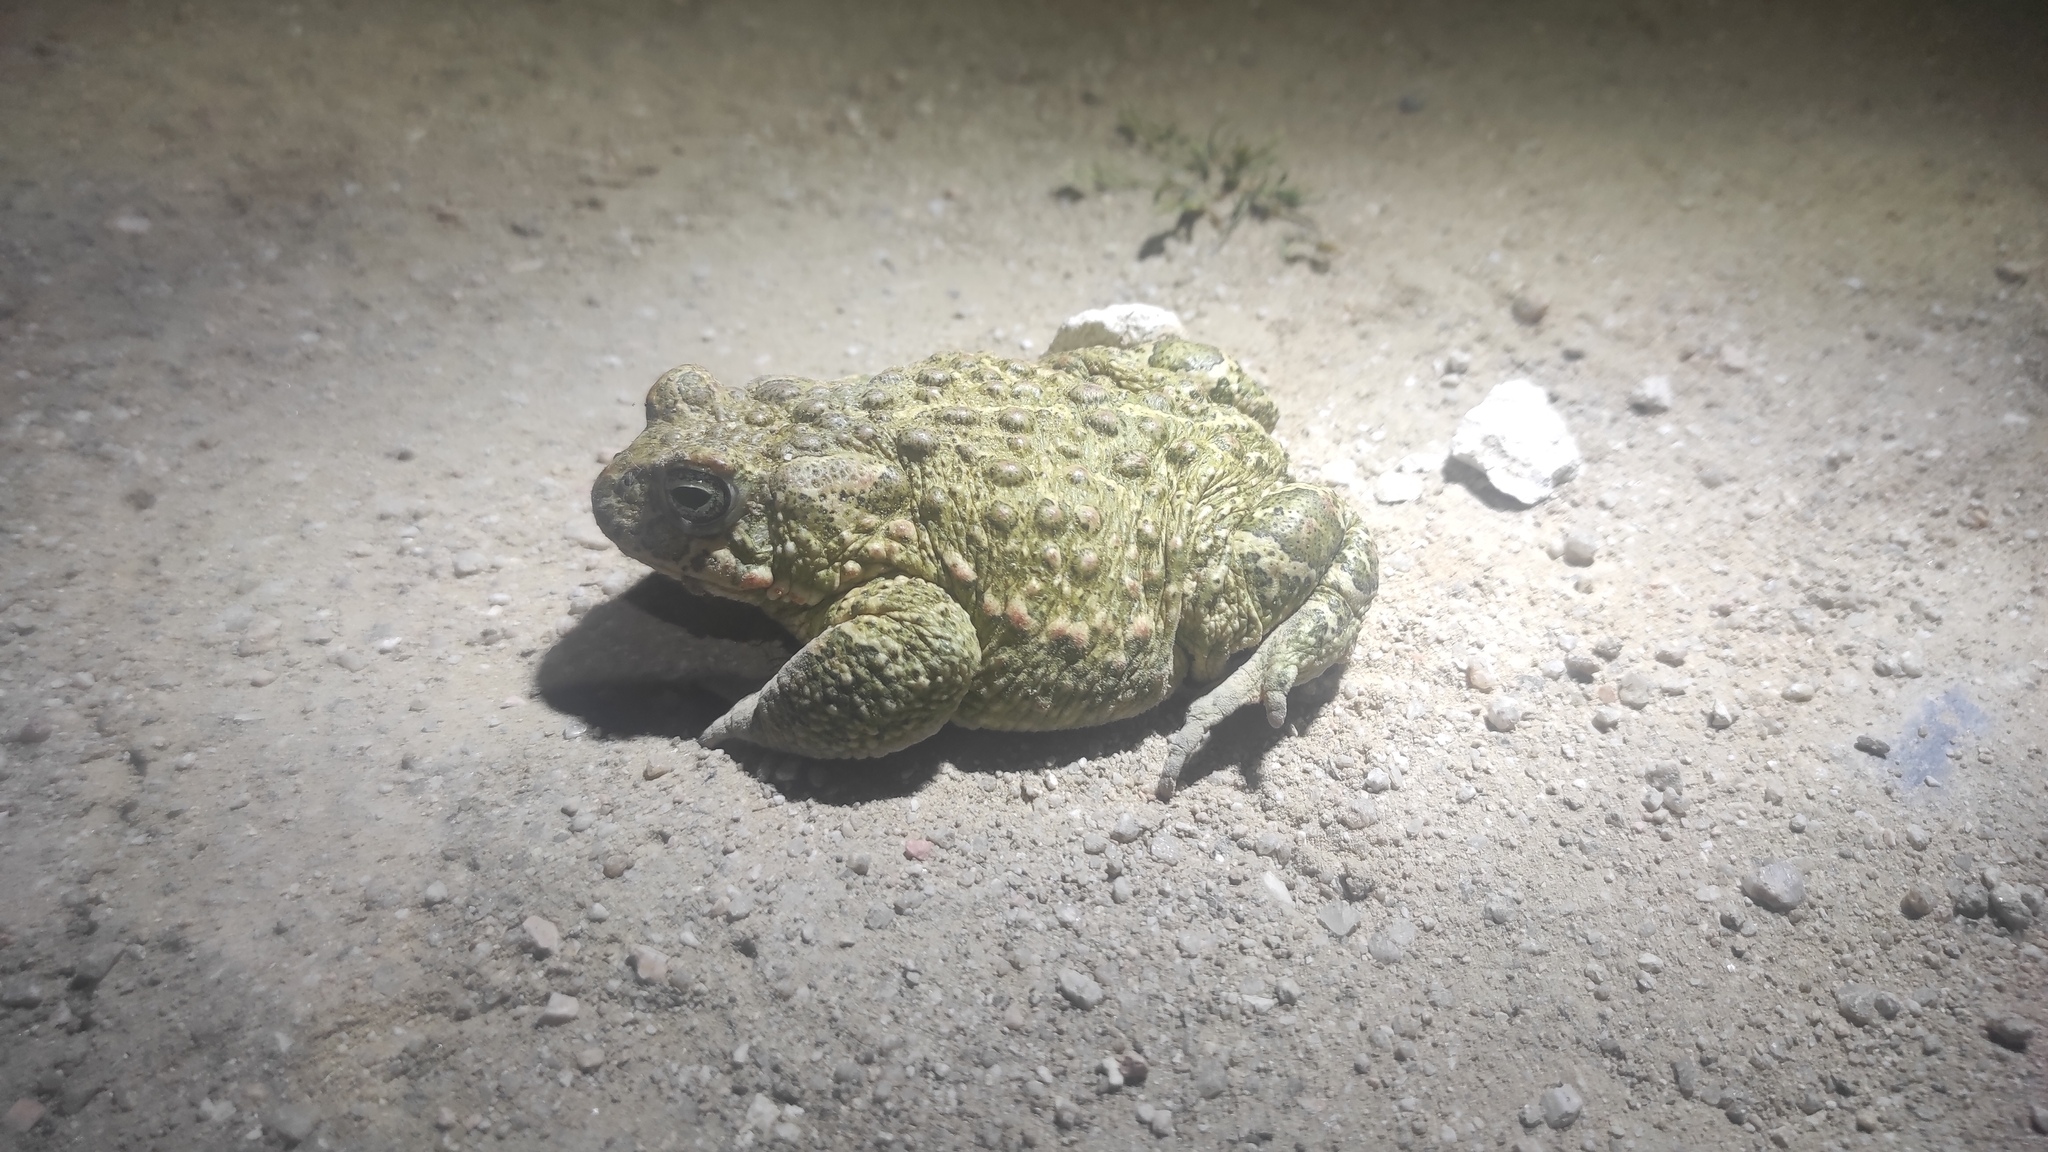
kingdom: Animalia
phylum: Chordata
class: Amphibia
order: Anura
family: Bufonidae
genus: Epidalea
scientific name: Epidalea calamita
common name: Natterjack toad
